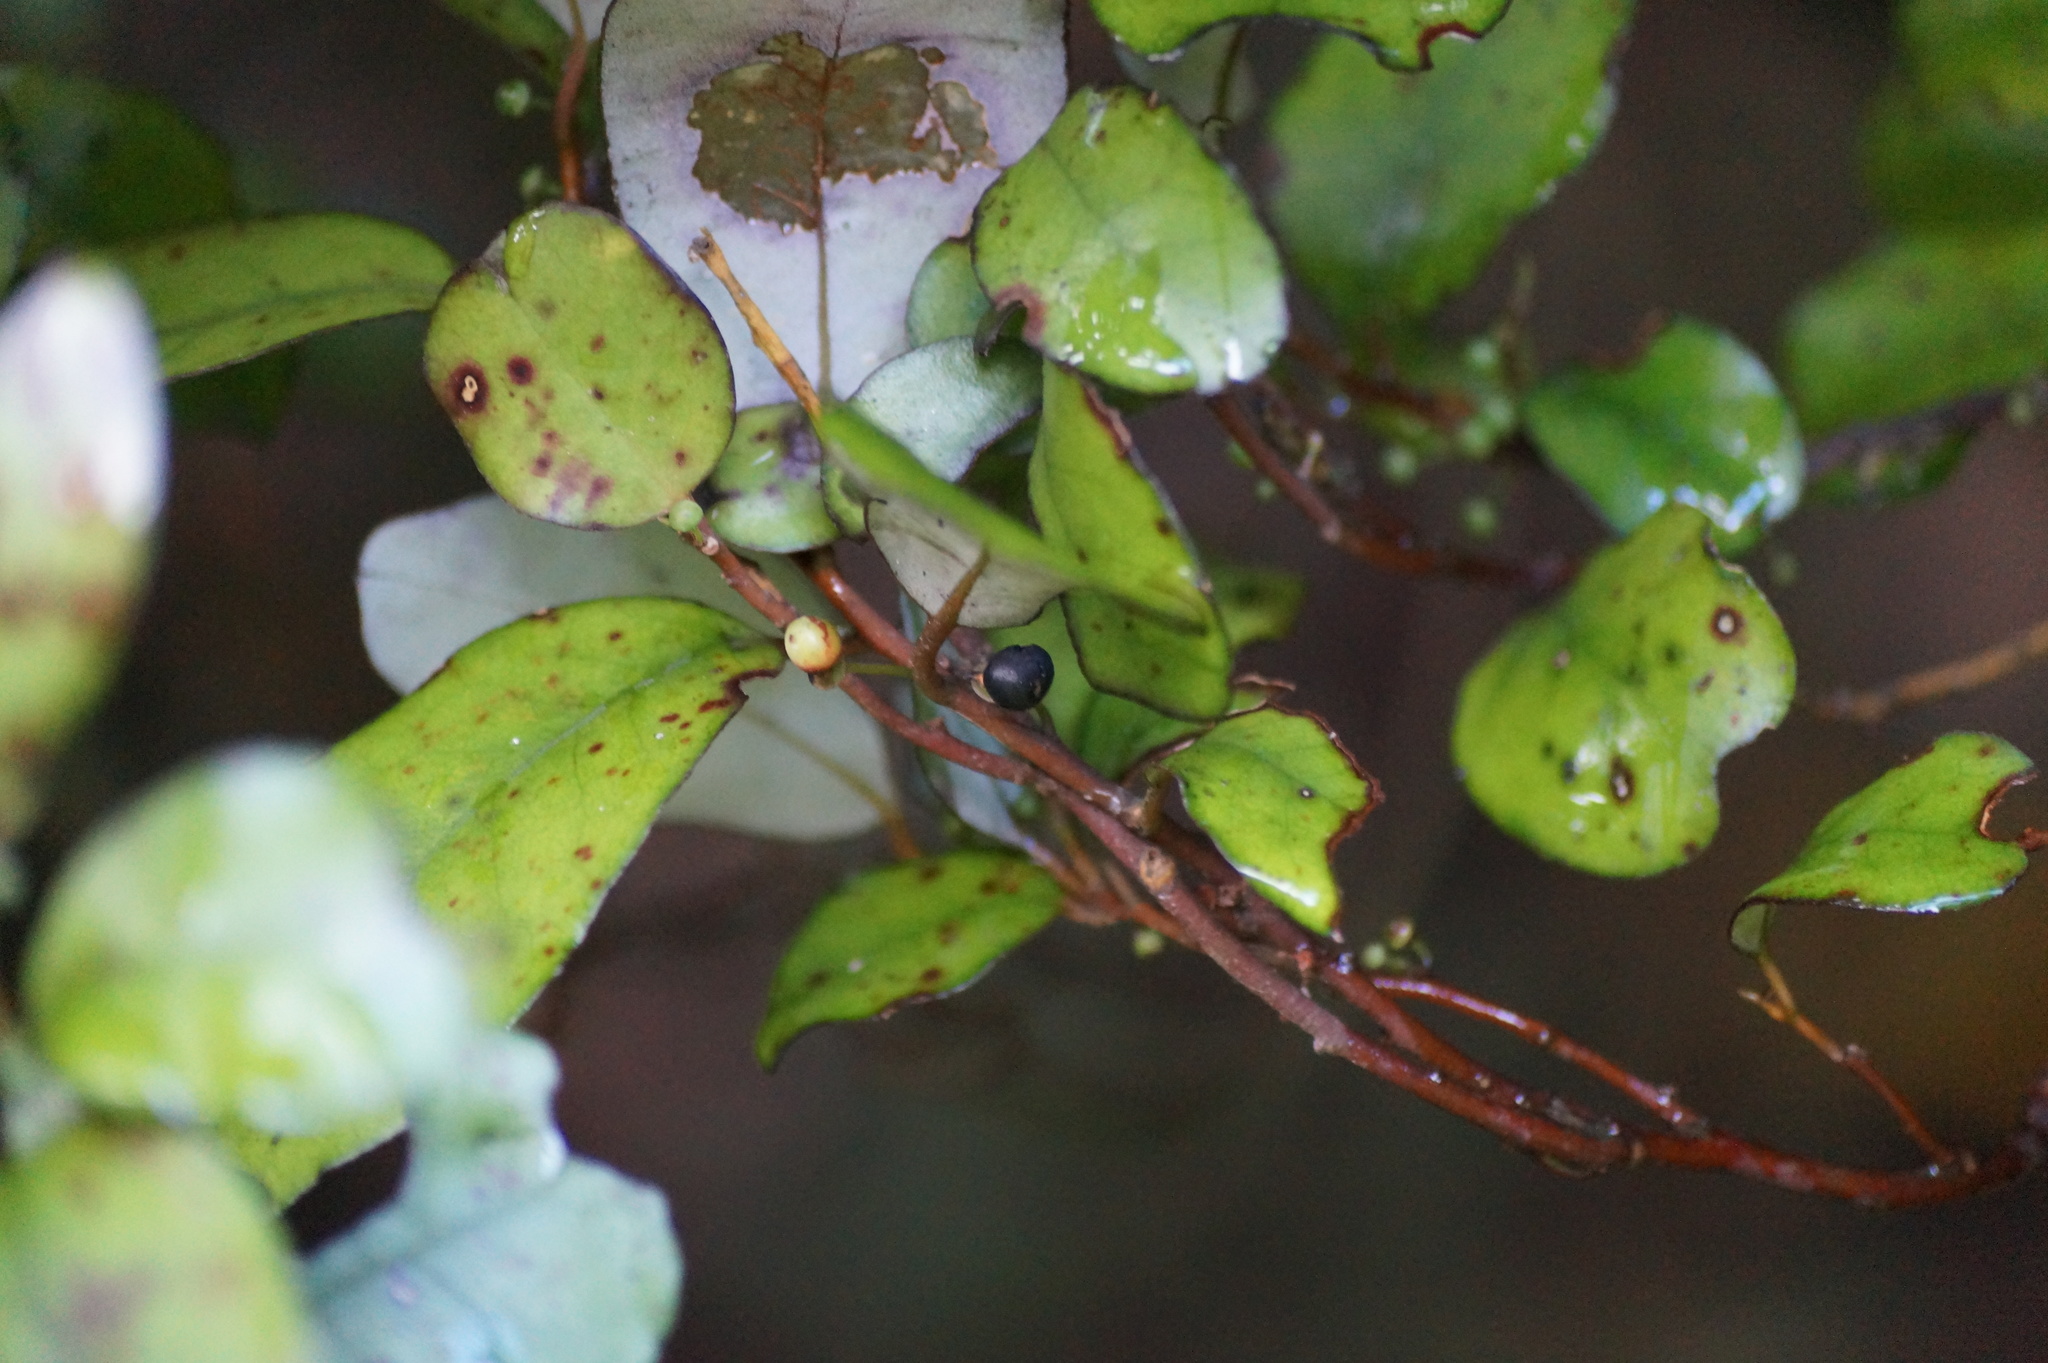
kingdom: Plantae
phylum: Tracheophyta
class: Magnoliopsida
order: Canellales
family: Winteraceae
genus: Pseudowintera
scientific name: Pseudowintera colorata
